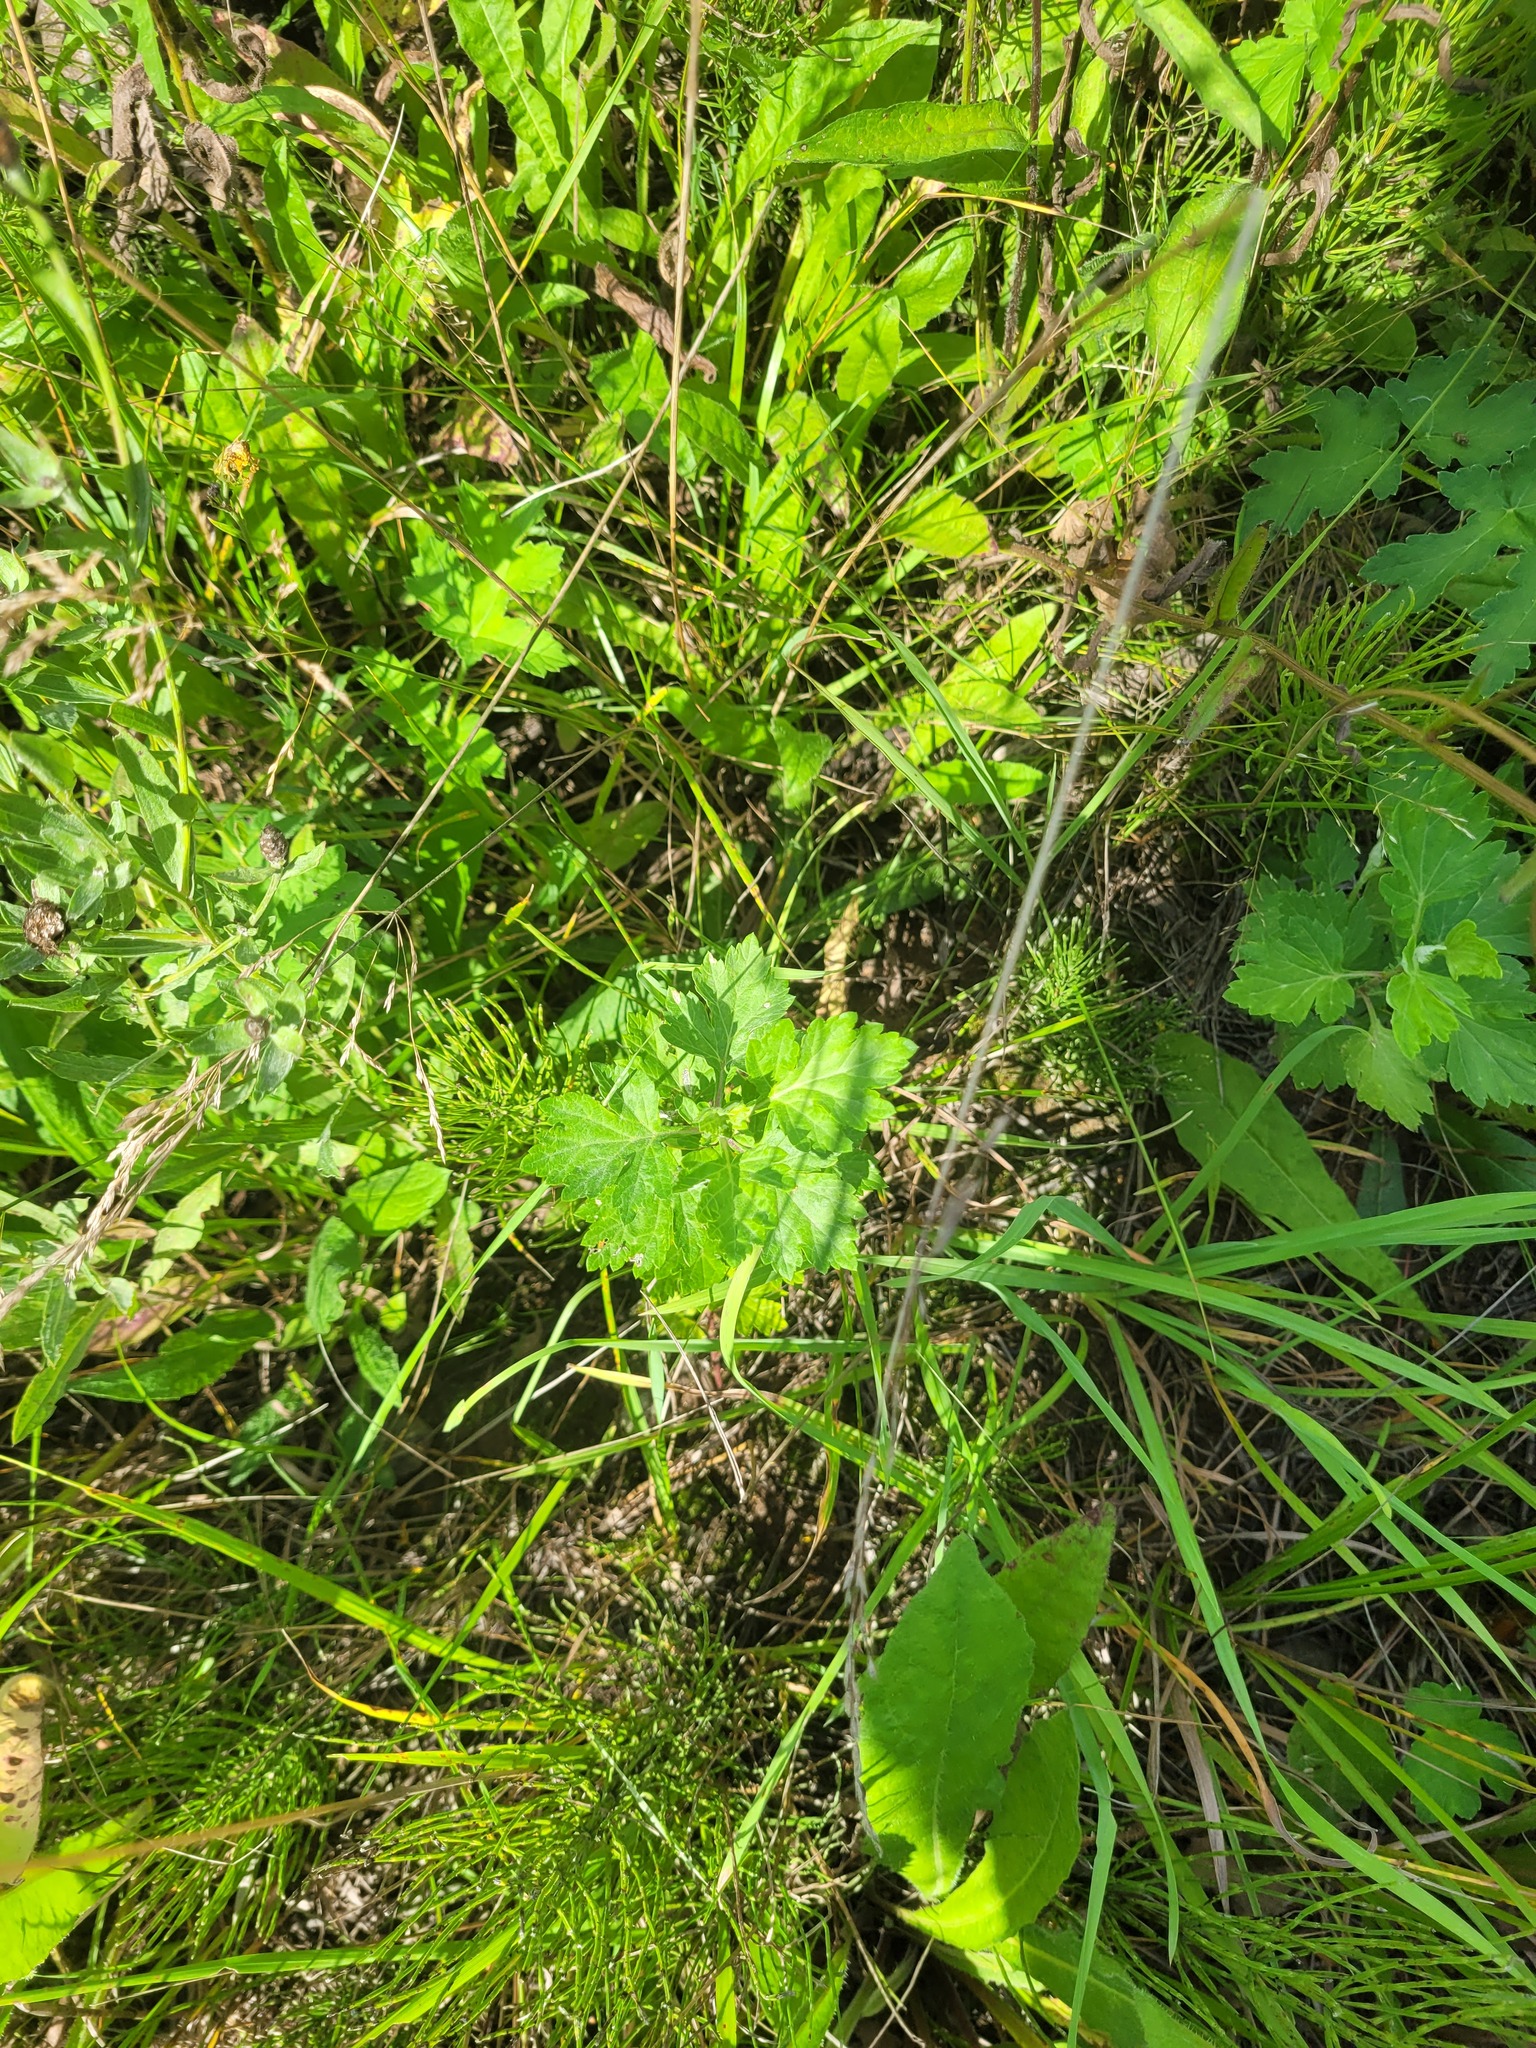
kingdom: Plantae
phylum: Tracheophyta
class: Magnoliopsida
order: Asterales
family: Asteraceae
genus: Artemisia
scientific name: Artemisia vulgaris
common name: Mugwort
